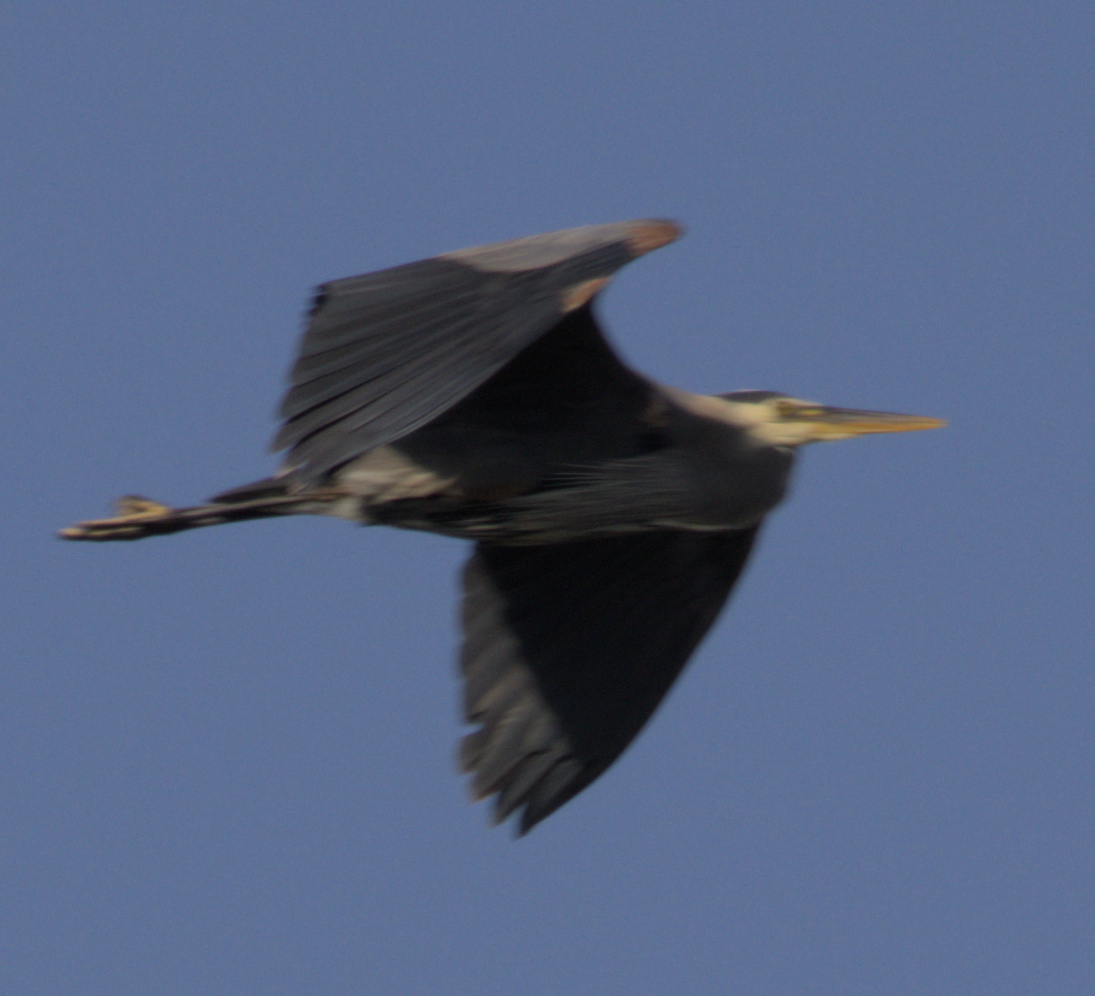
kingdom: Animalia
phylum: Chordata
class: Aves
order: Pelecaniformes
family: Ardeidae
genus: Ardea
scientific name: Ardea herodias
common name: Great blue heron
